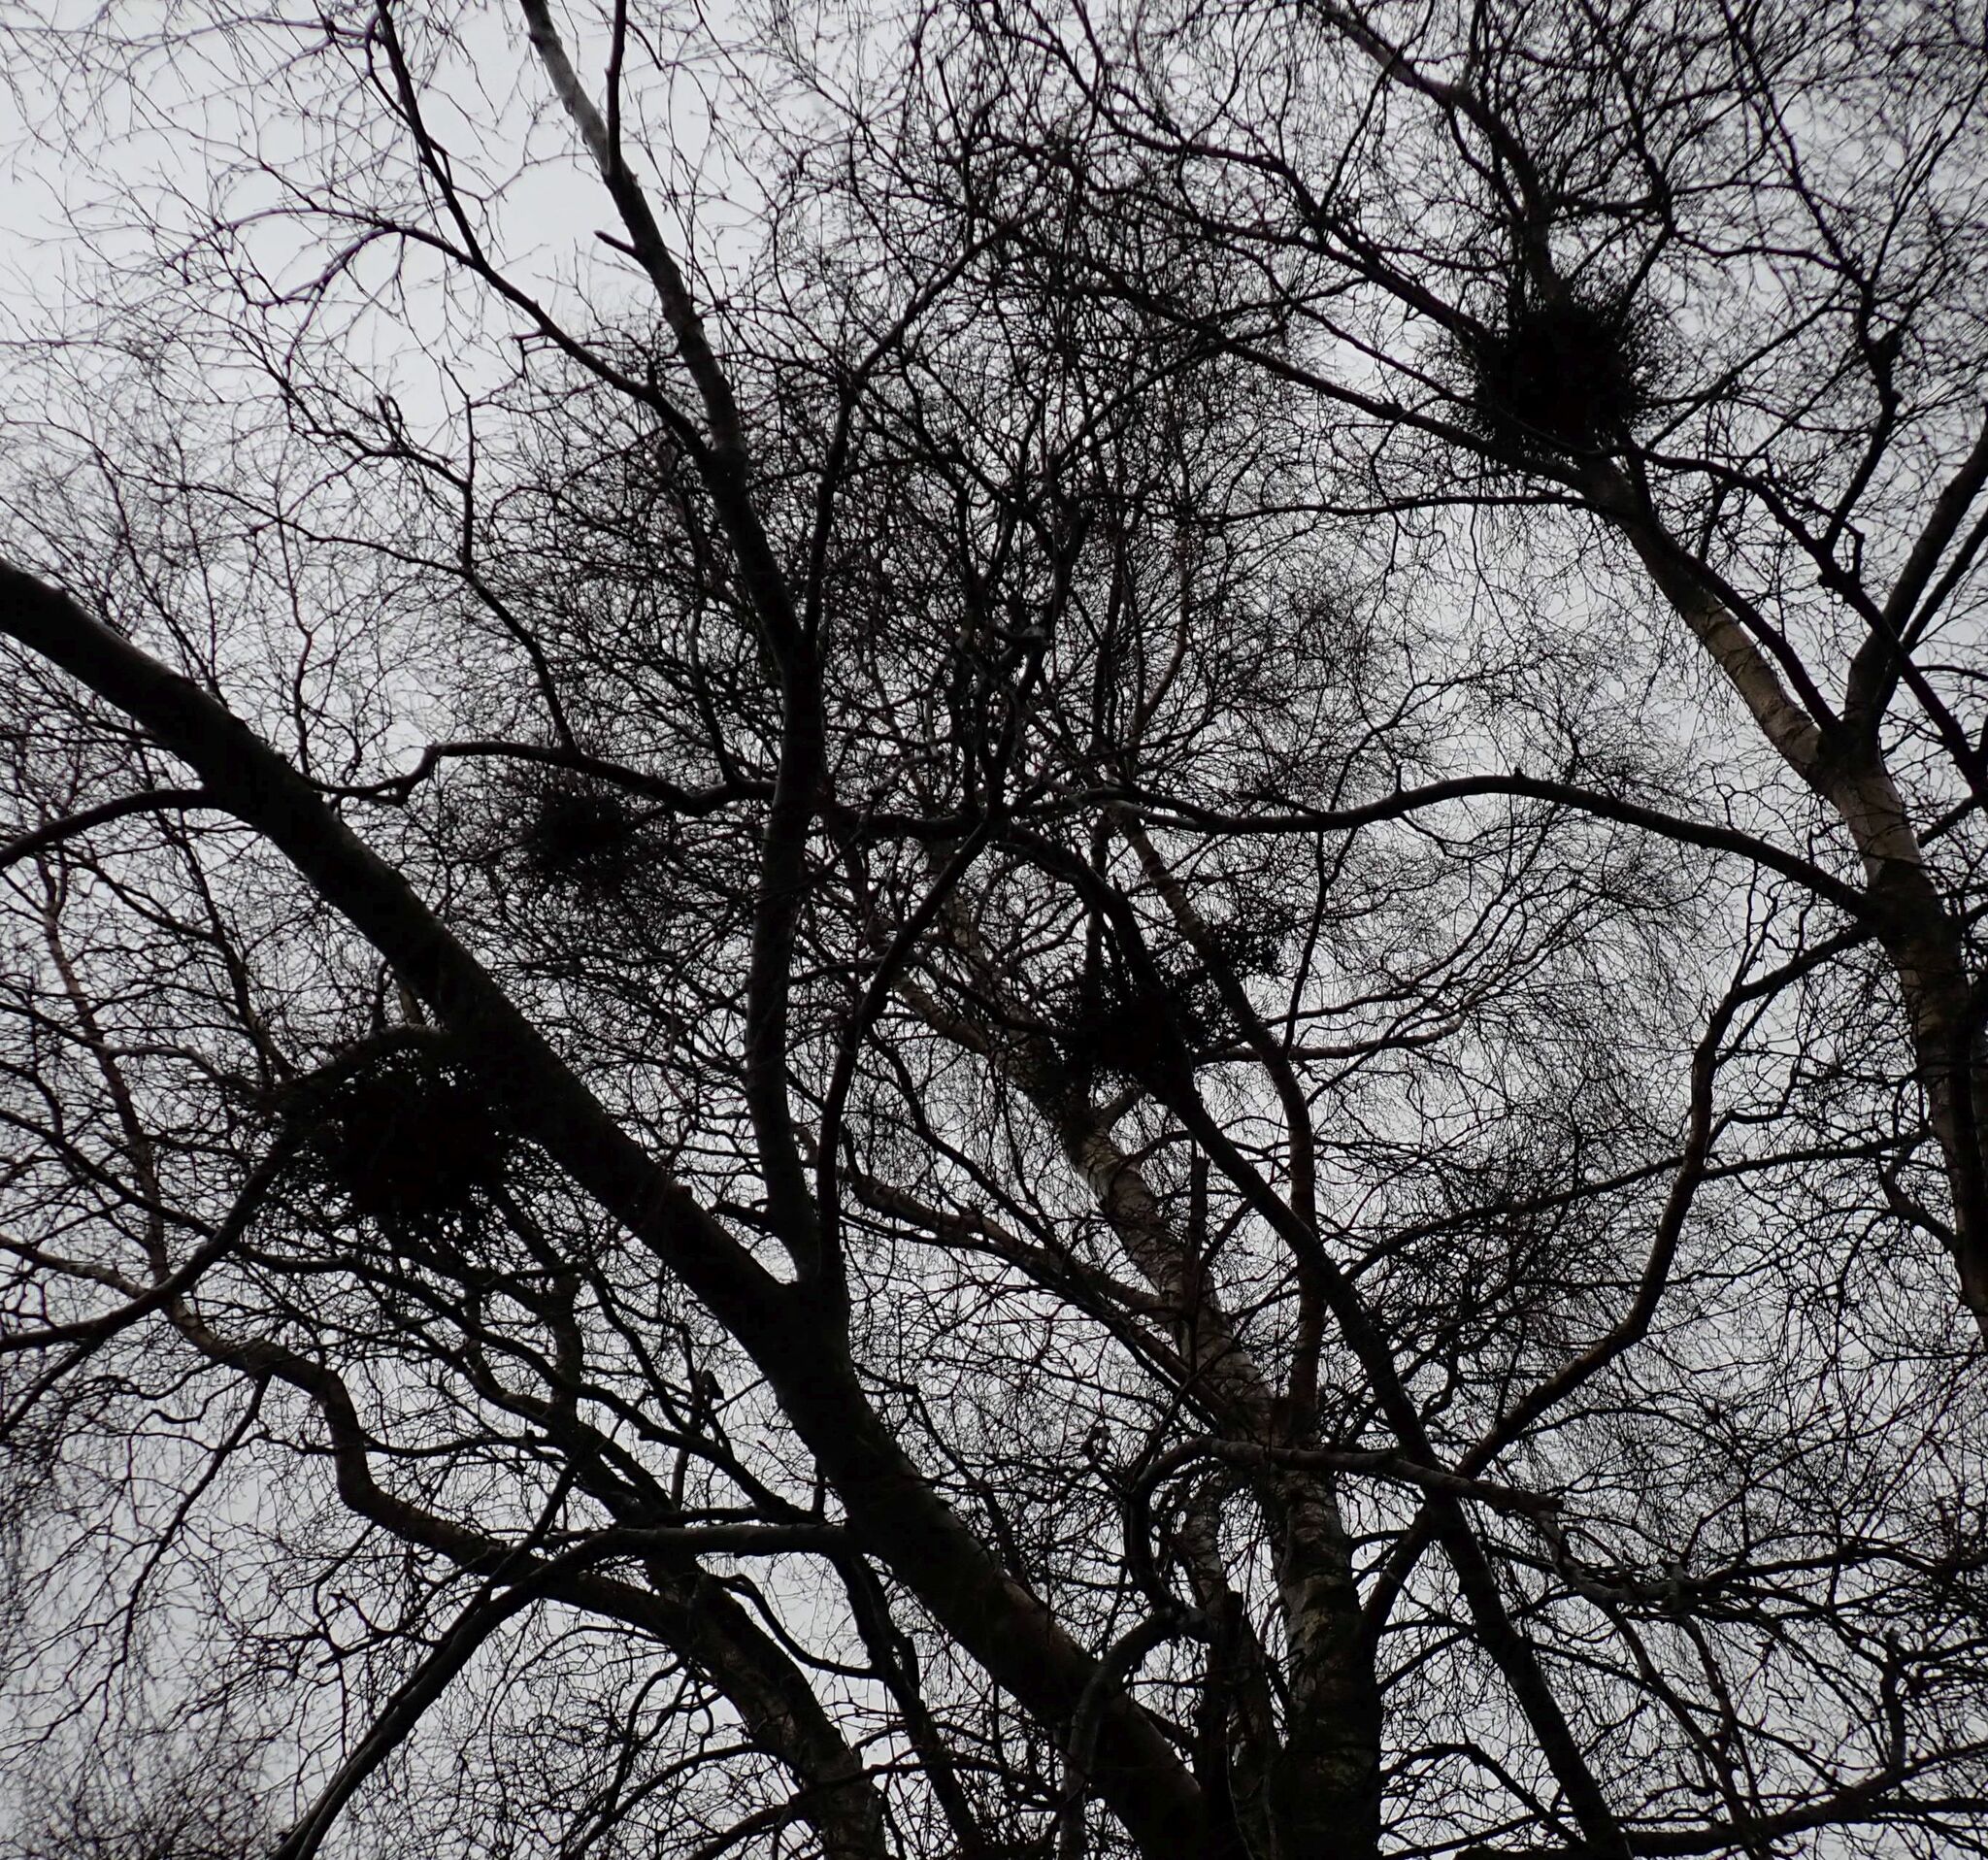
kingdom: Fungi
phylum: Ascomycota
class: Taphrinomycetes
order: Taphrinales
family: Taphrinaceae
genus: Taphrina
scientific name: Taphrina betulina
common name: Birch besom
